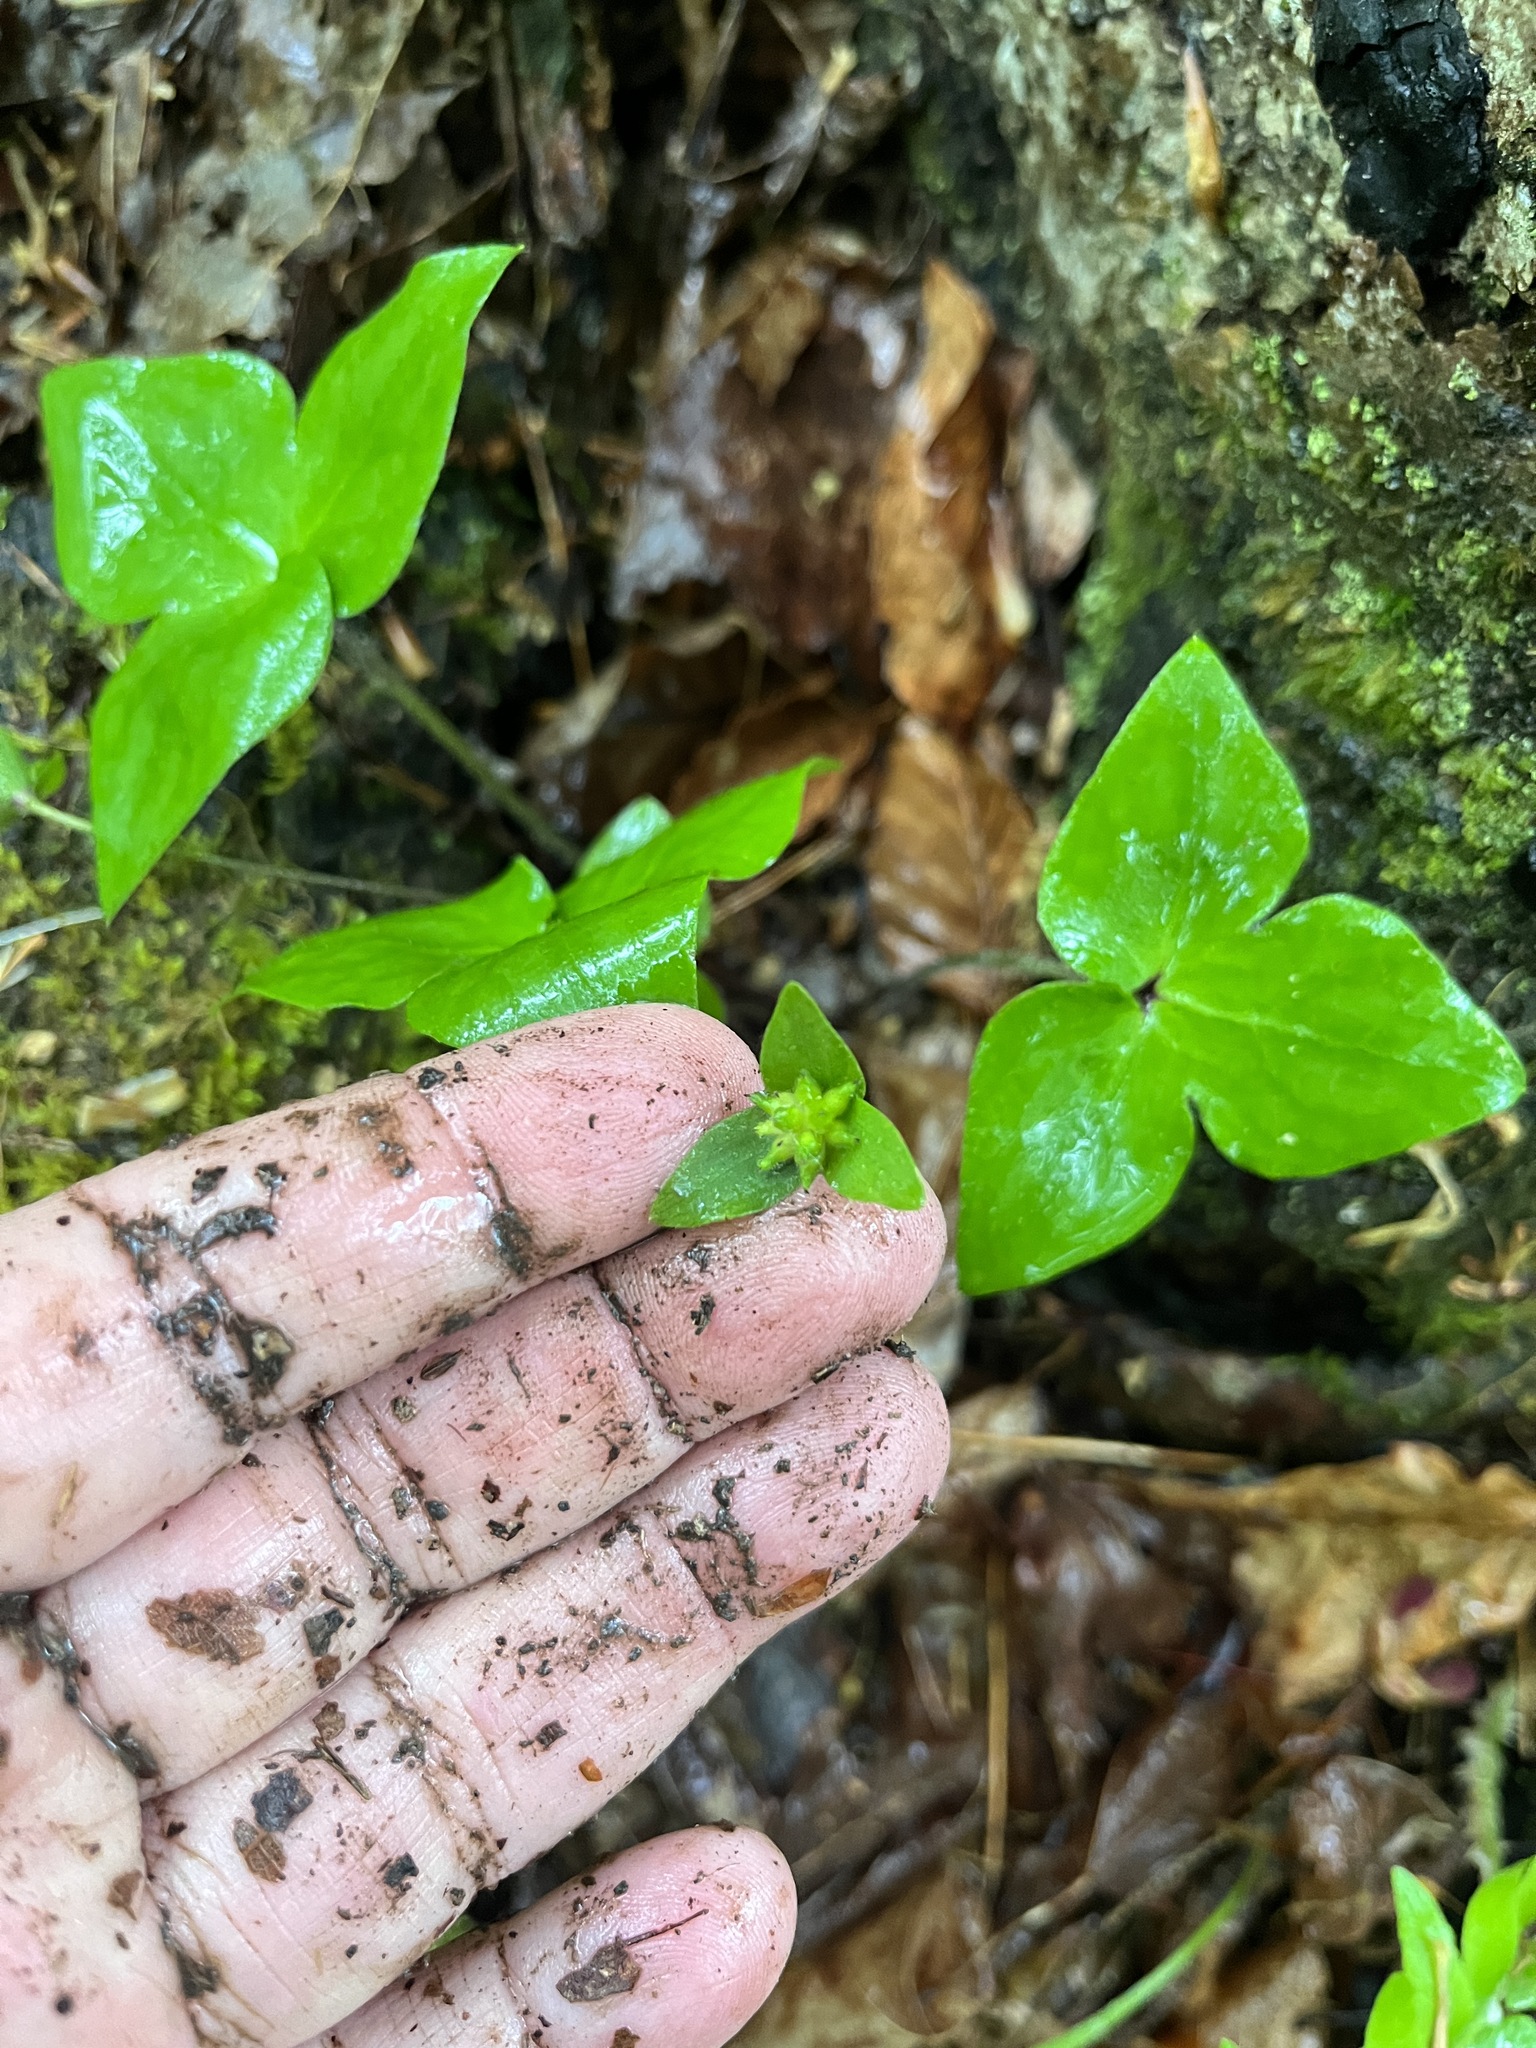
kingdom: Plantae
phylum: Tracheophyta
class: Magnoliopsida
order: Ranunculales
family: Ranunculaceae
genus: Hepatica
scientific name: Hepatica acutiloba
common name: Sharp-lobed hepatica
